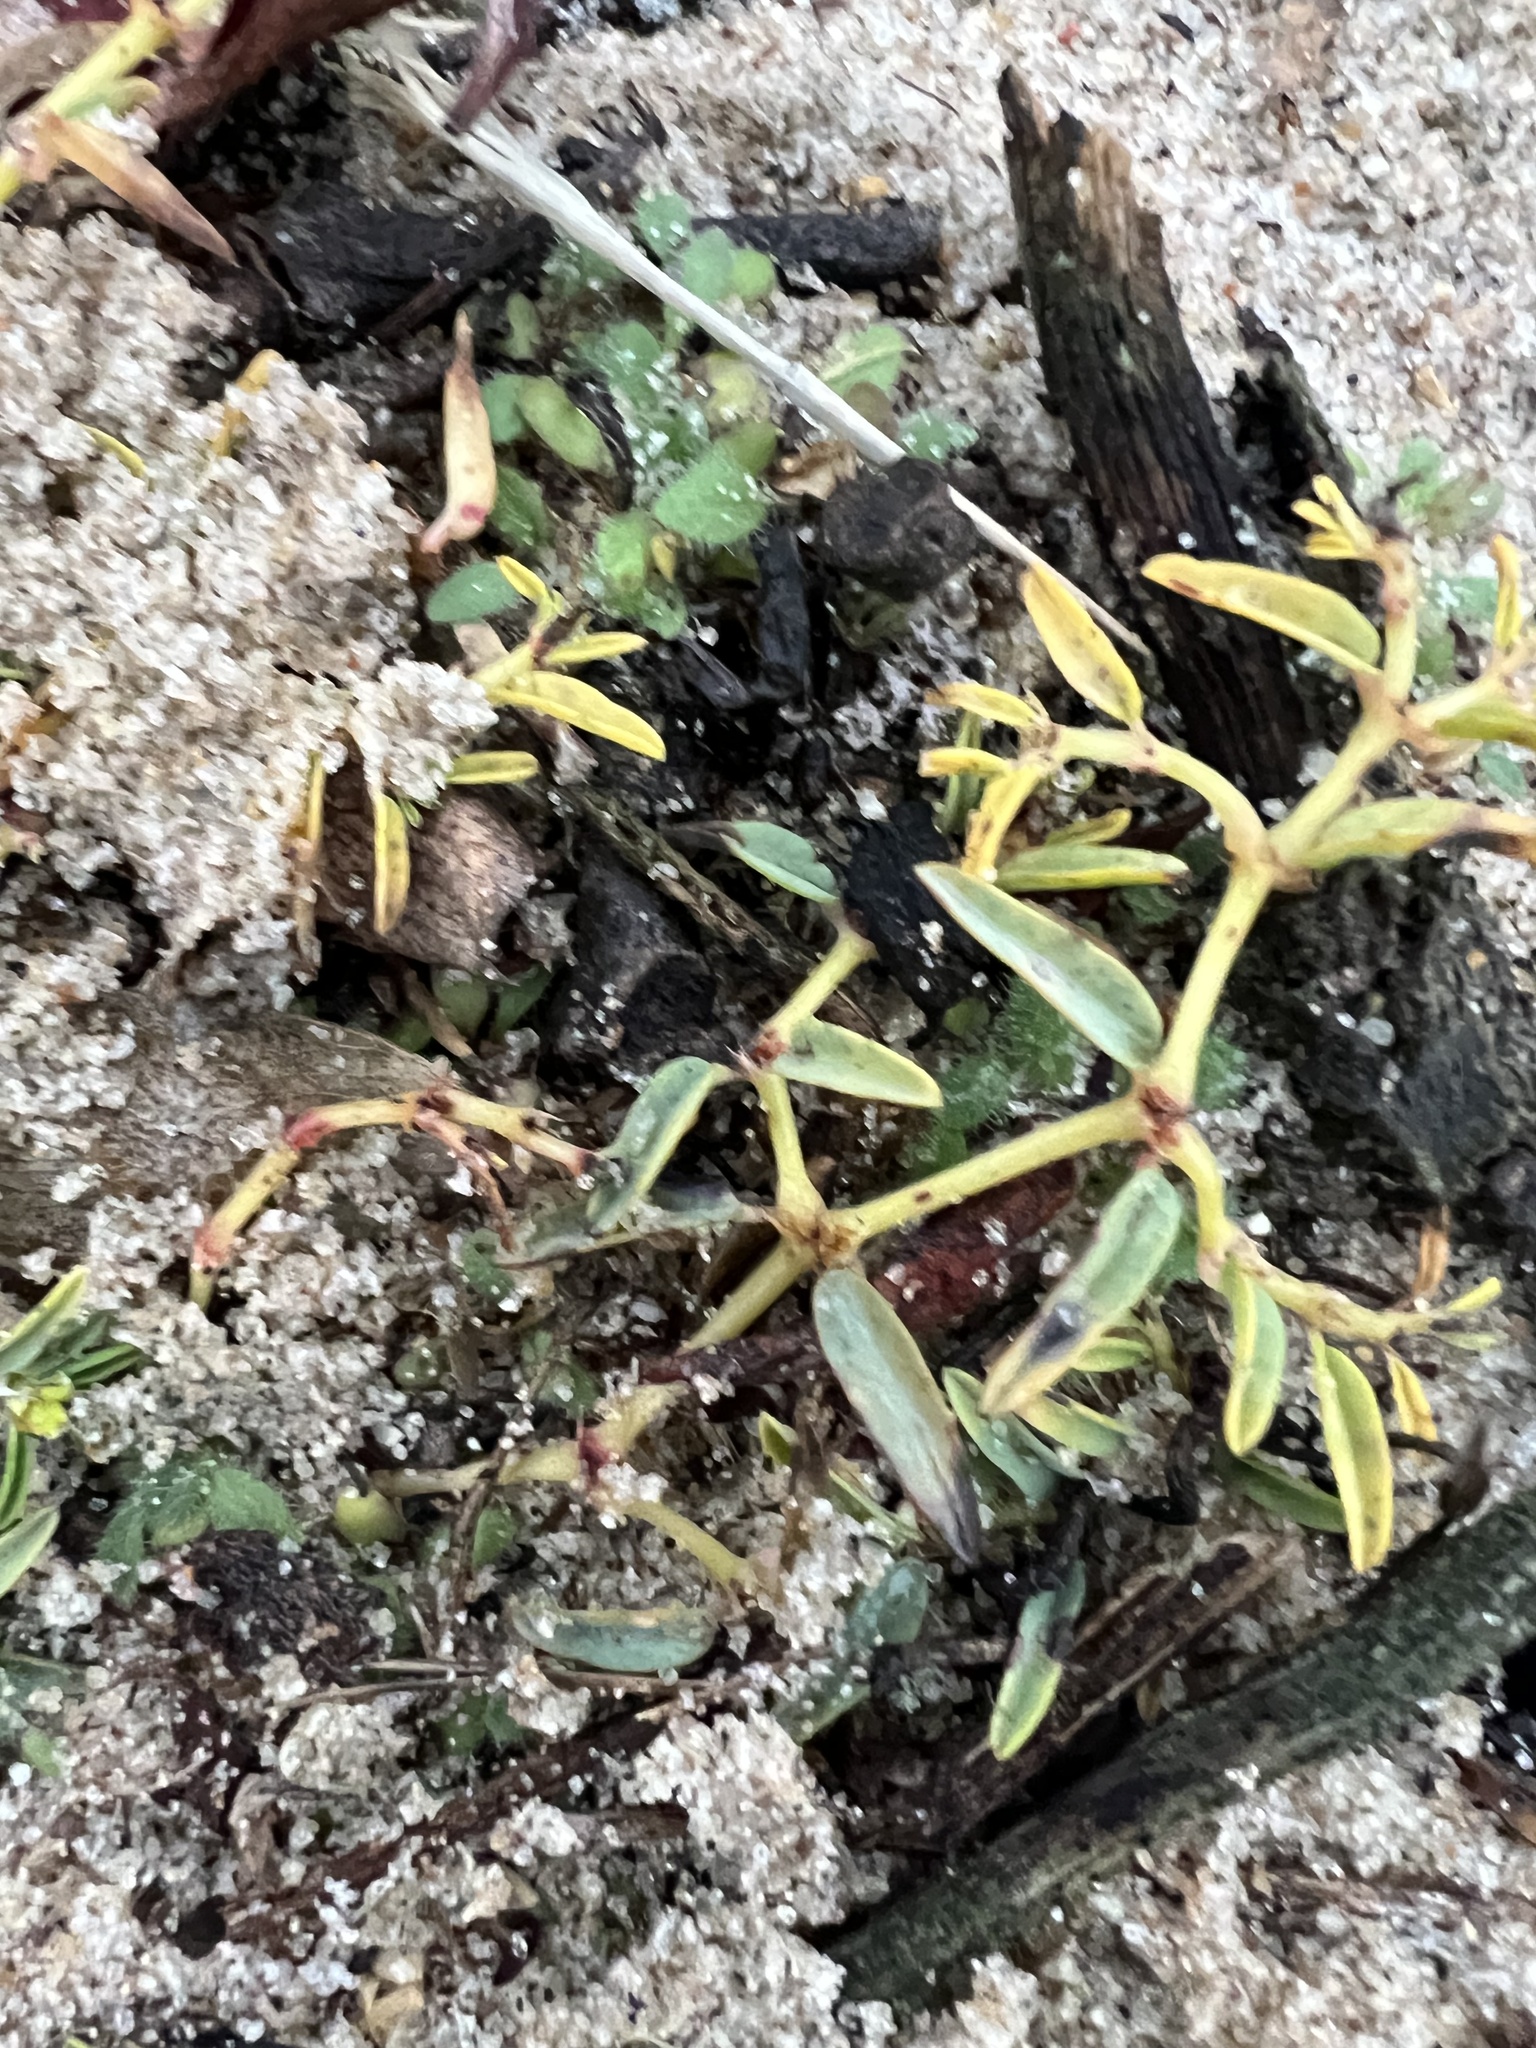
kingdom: Plantae
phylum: Tracheophyta
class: Magnoliopsida
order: Malpighiales
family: Euphorbiaceae
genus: Euphorbia
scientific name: Euphorbia polygonifolia
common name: Knotweed spurge
